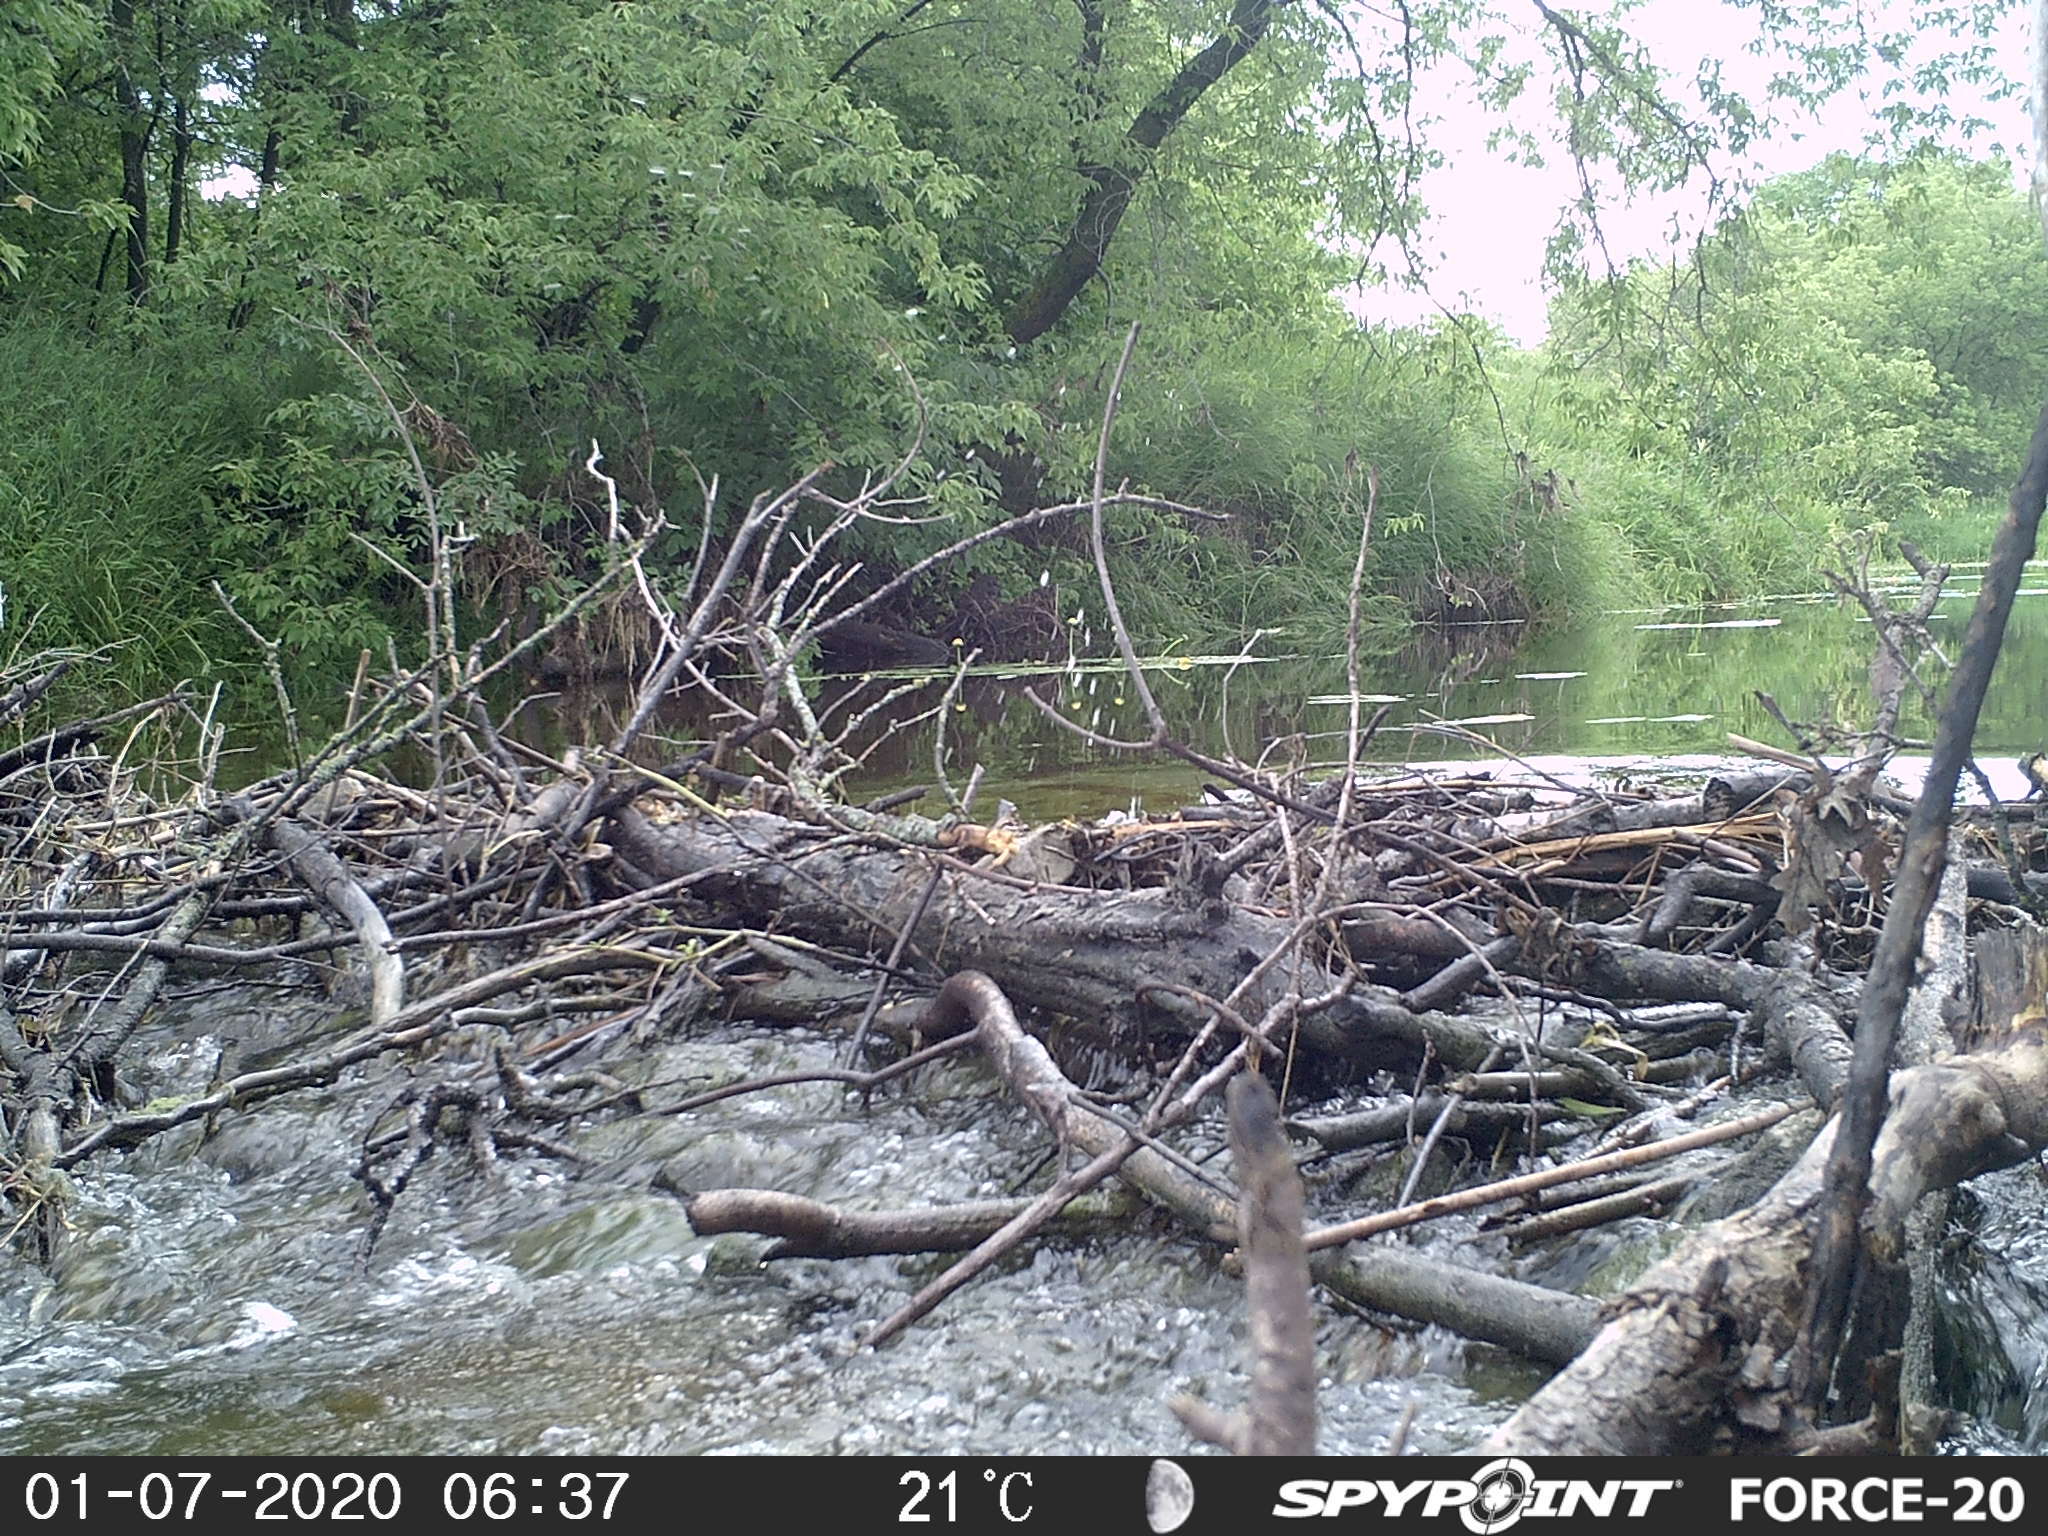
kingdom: Animalia
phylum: Chordata
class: Mammalia
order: Rodentia
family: Castoridae
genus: Castor
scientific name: Castor canadensis
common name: American beaver
